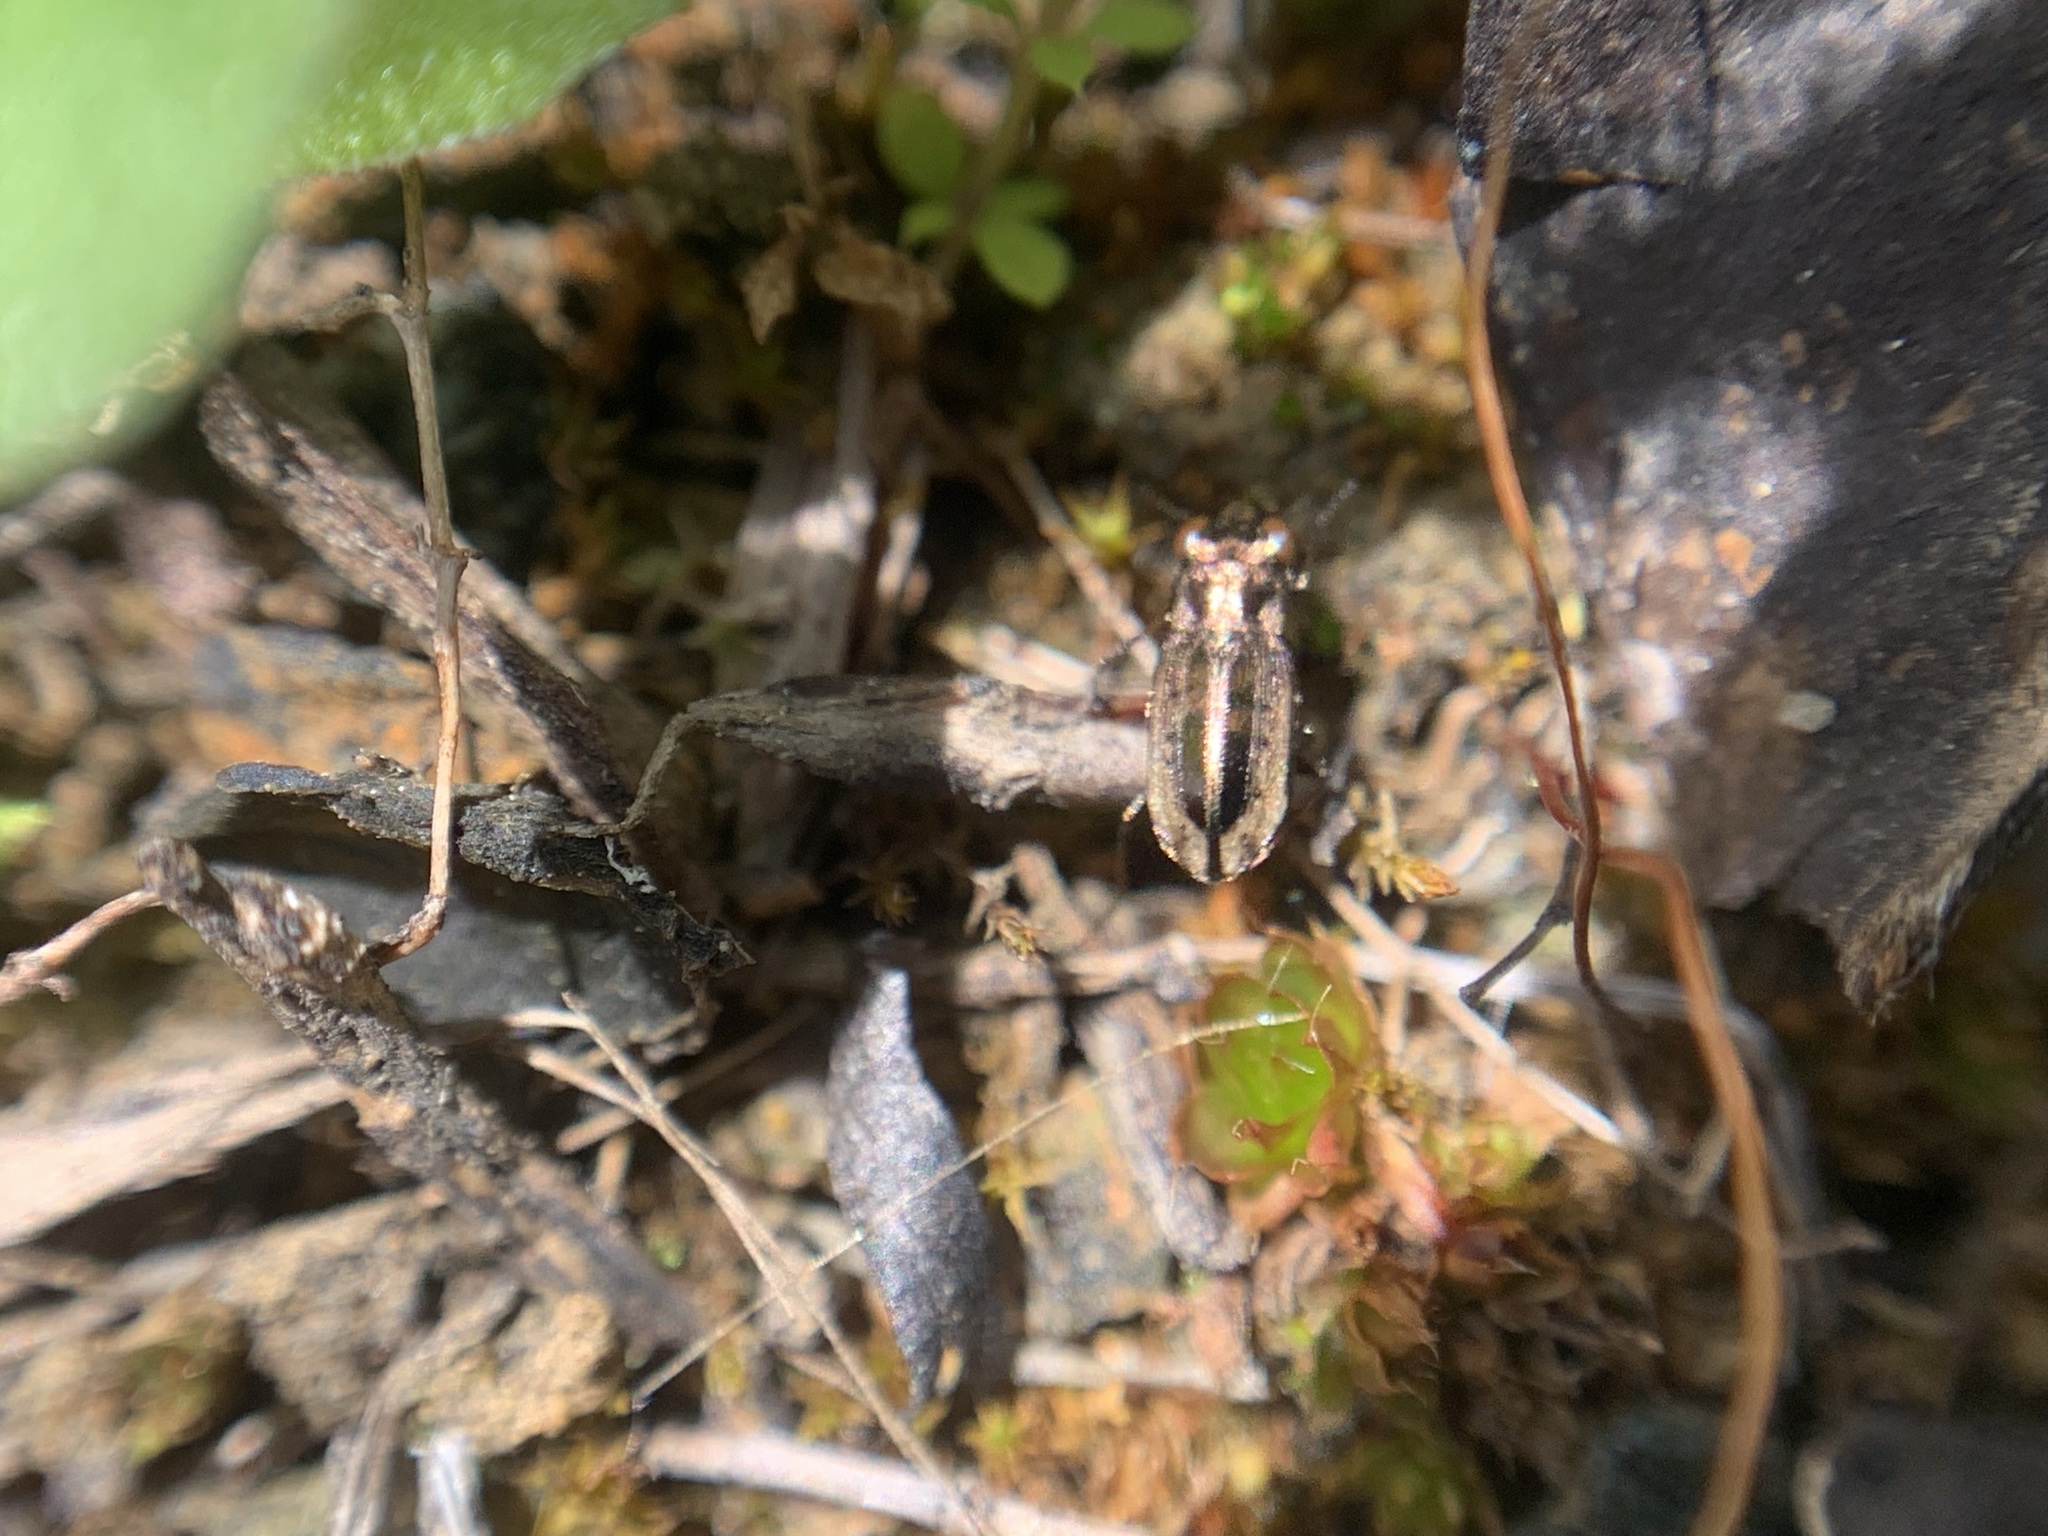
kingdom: Animalia
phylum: Arthropoda
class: Insecta
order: Coleoptera
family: Carabidae
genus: Notiophilus
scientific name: Notiophilus semiopacus
